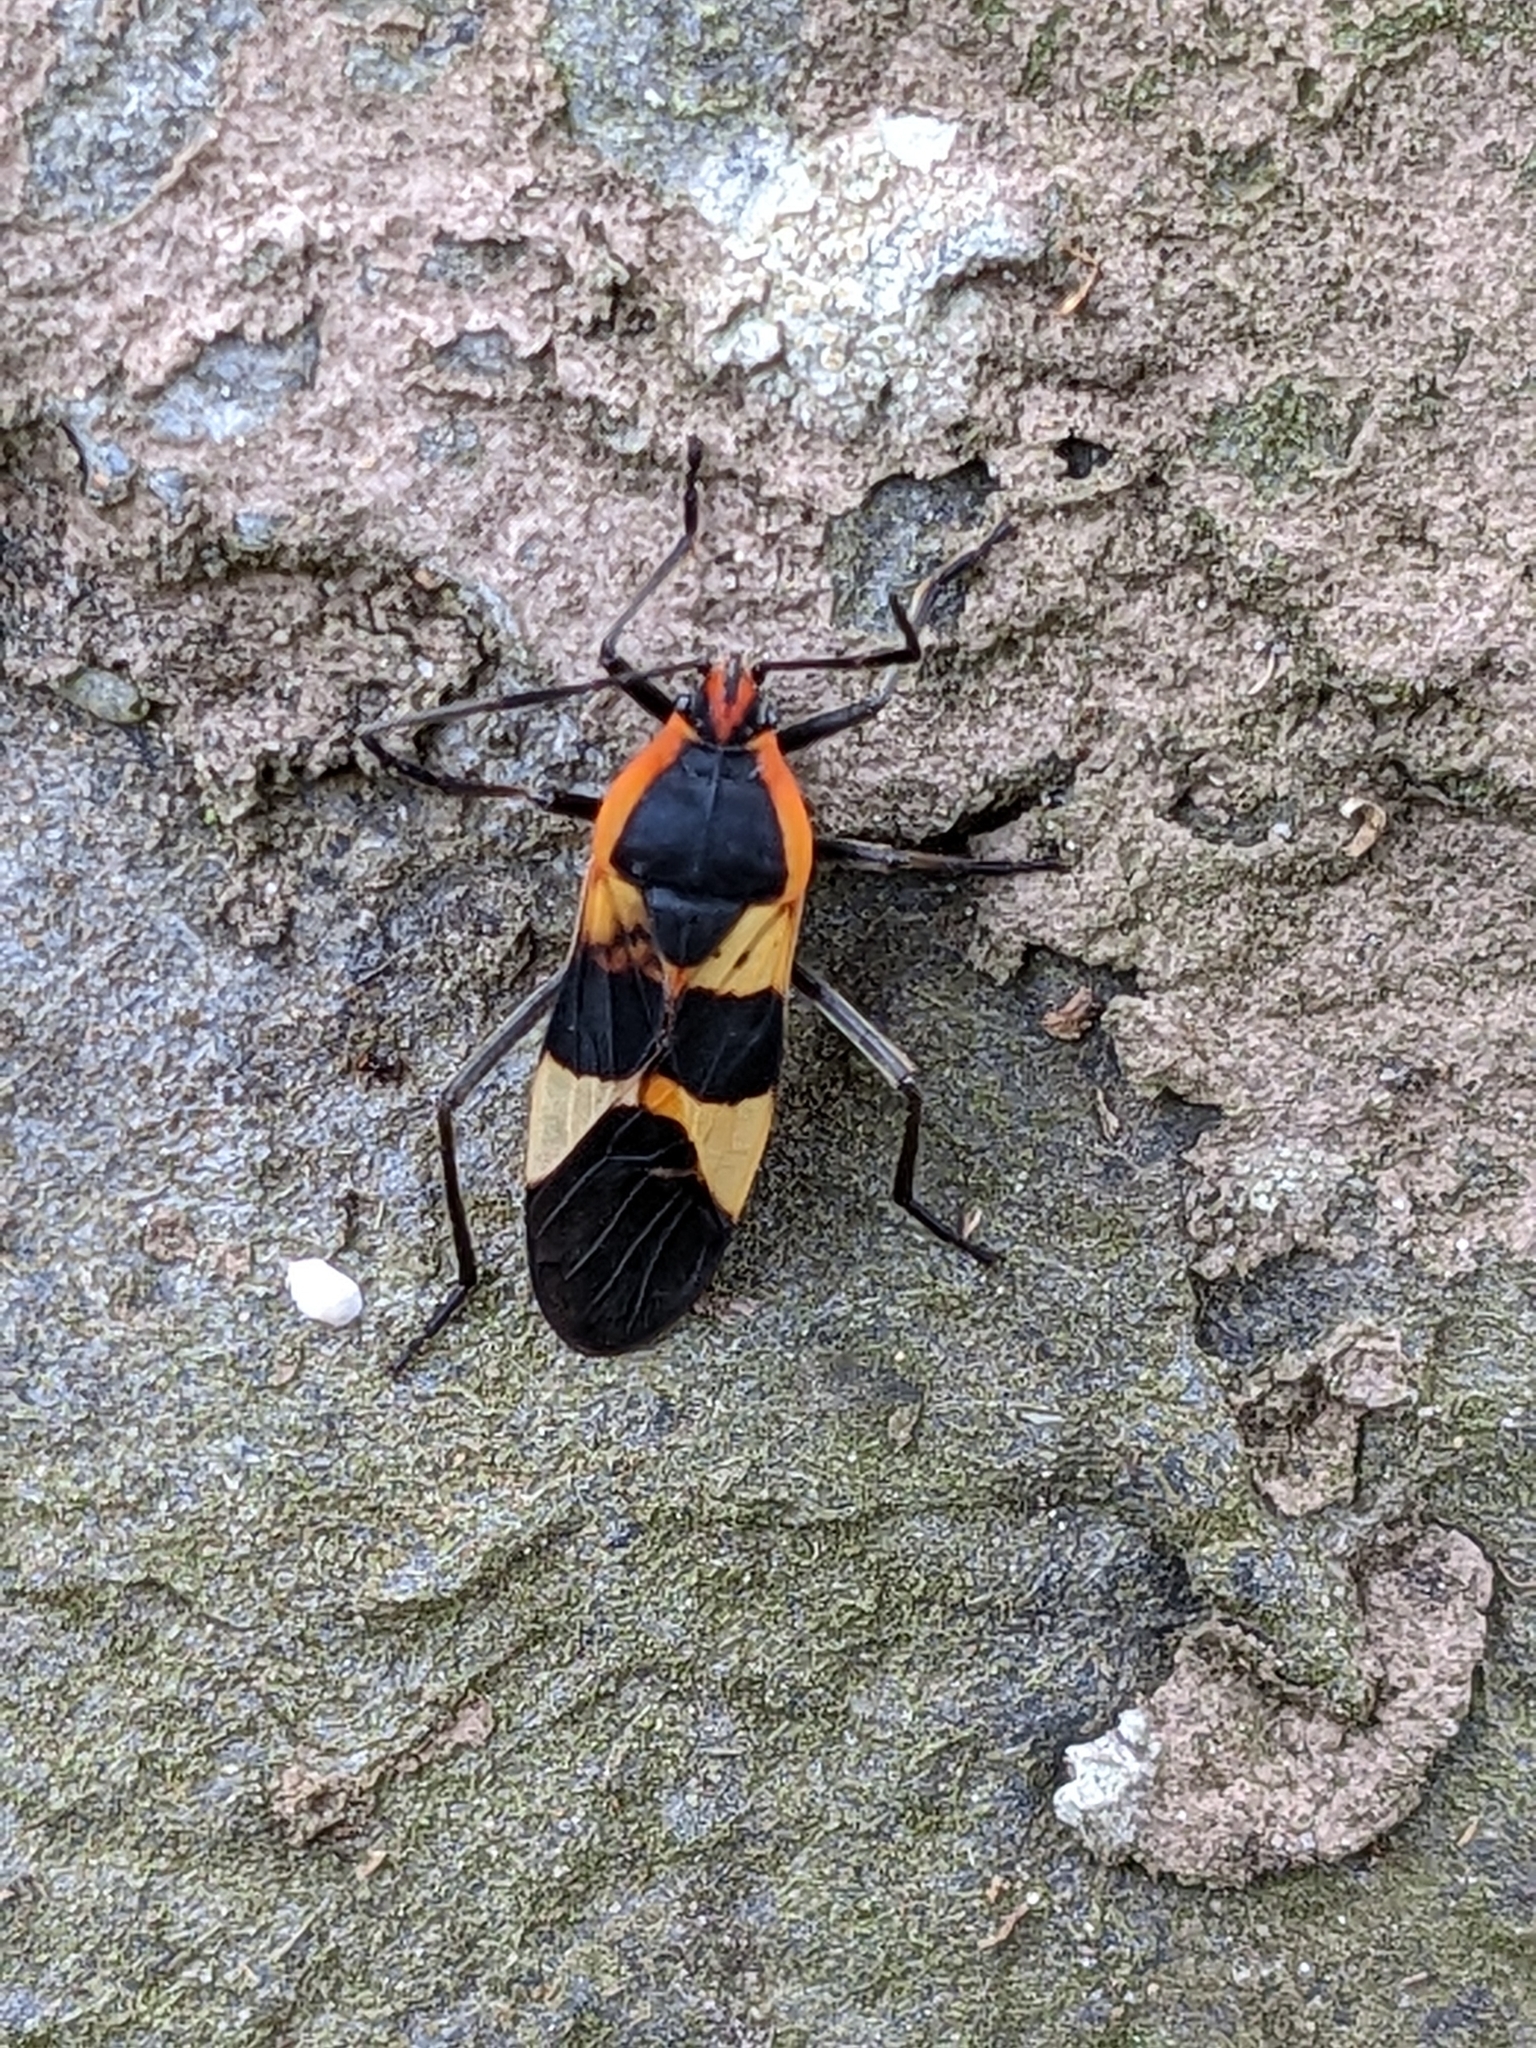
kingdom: Animalia
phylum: Arthropoda
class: Insecta
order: Hemiptera
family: Lygaeidae
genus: Oncopeltus
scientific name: Oncopeltus fasciatus
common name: Large milkweed bug
